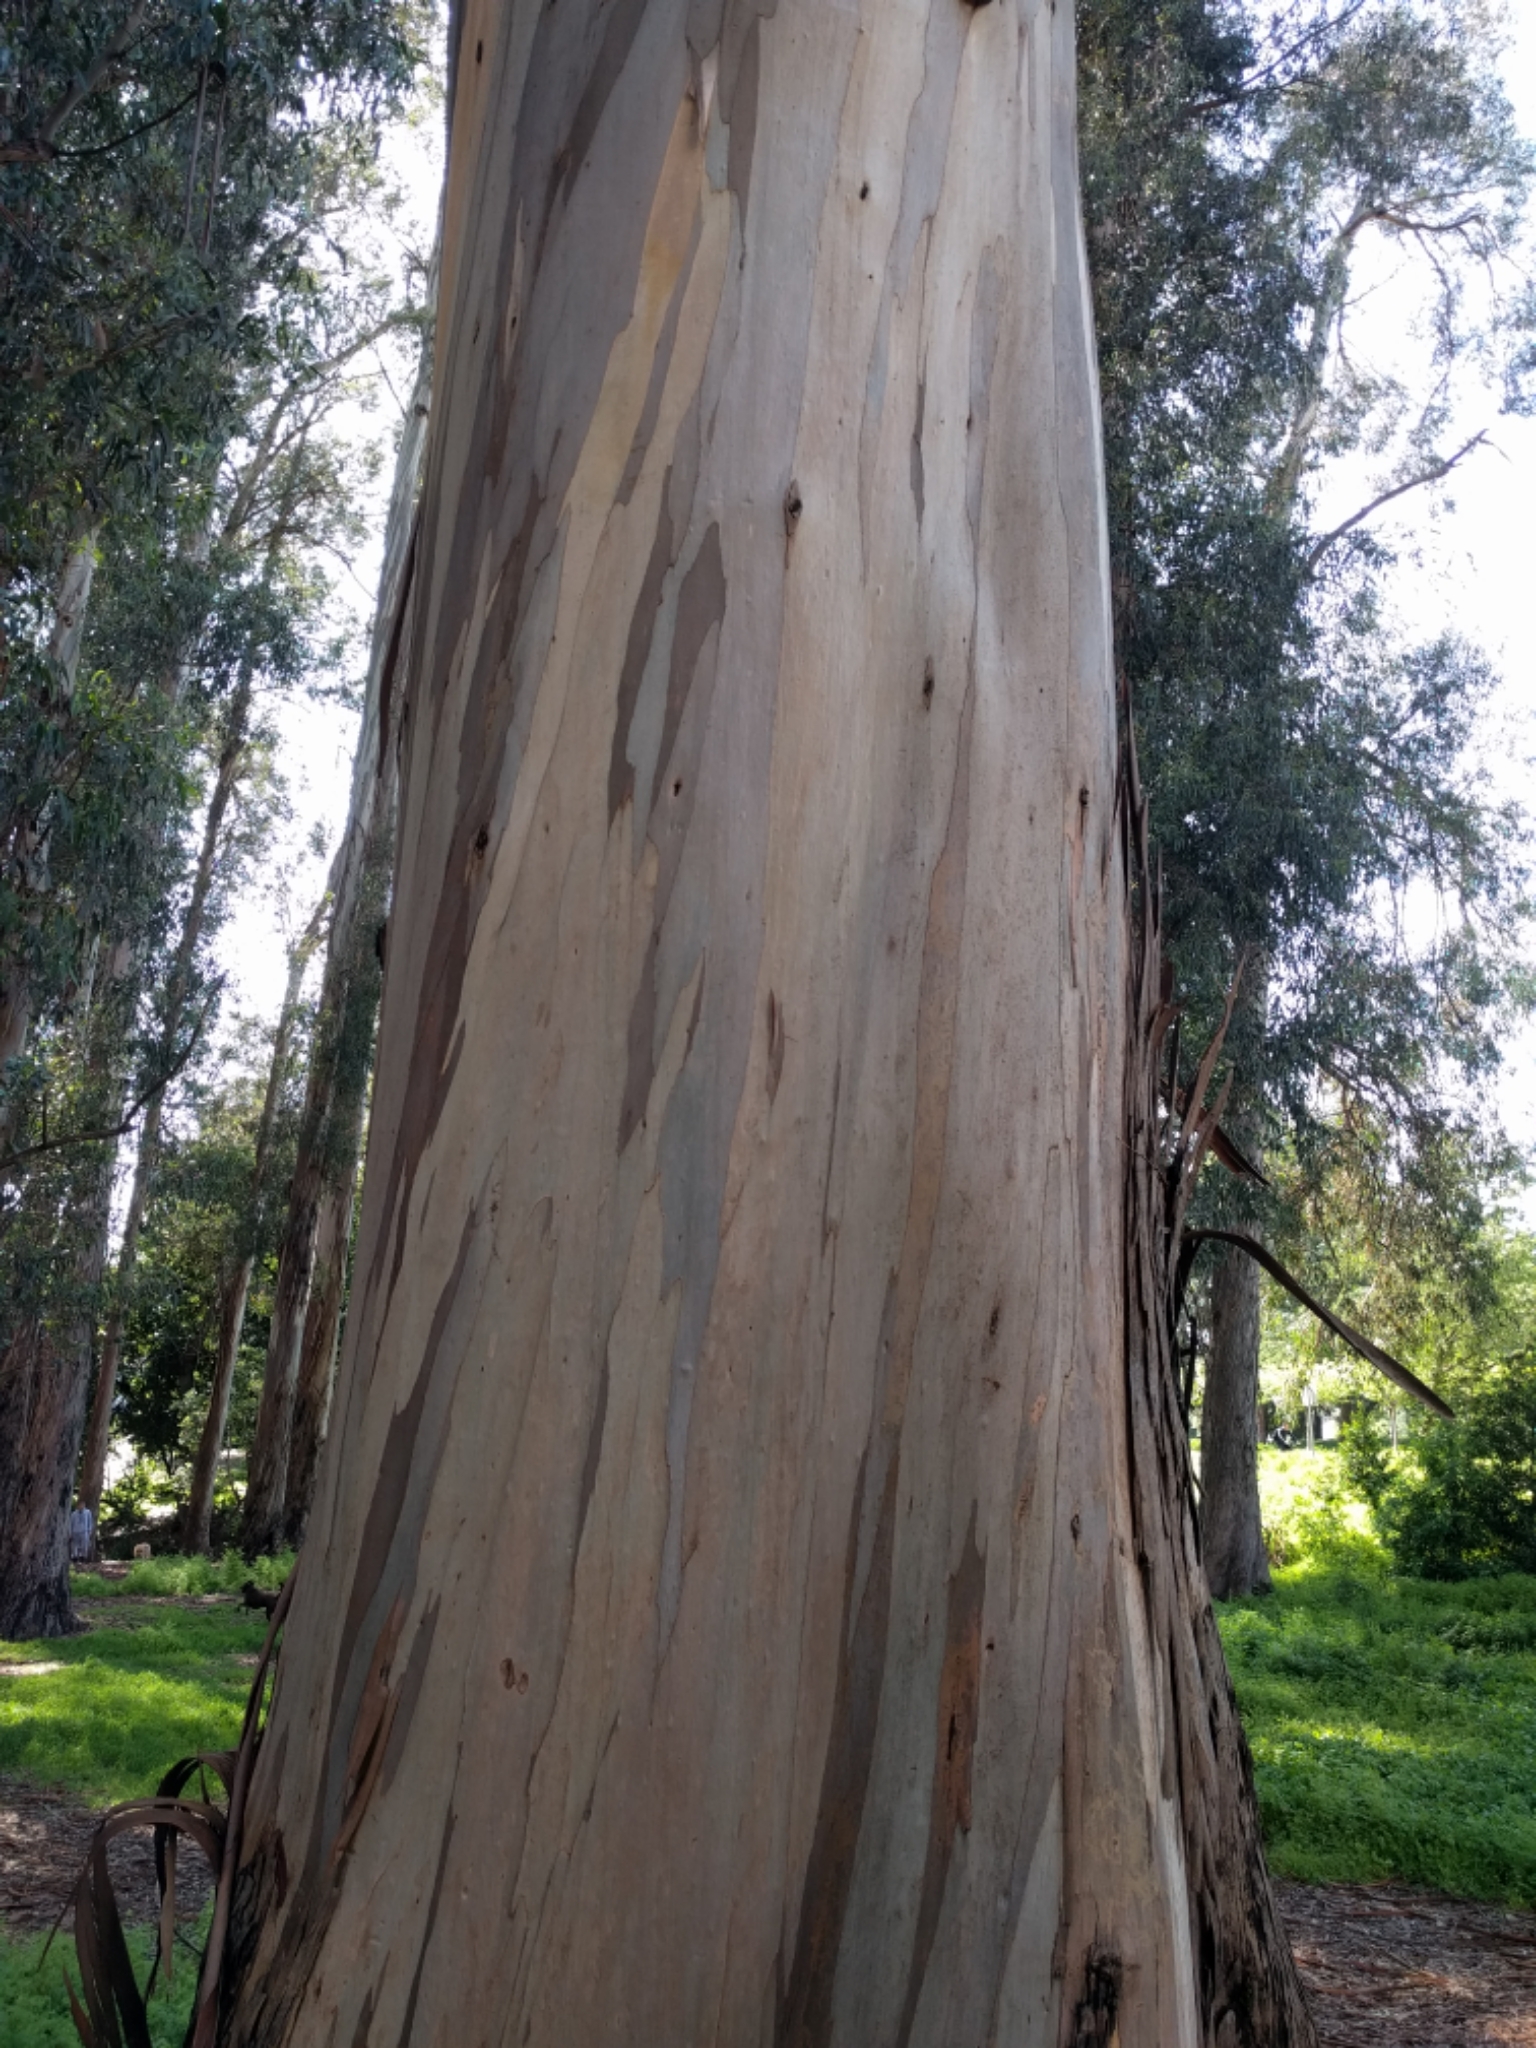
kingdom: Plantae
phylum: Tracheophyta
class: Magnoliopsida
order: Myrtales
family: Myrtaceae
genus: Eucalyptus
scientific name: Eucalyptus globulus
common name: Southern blue-gum
